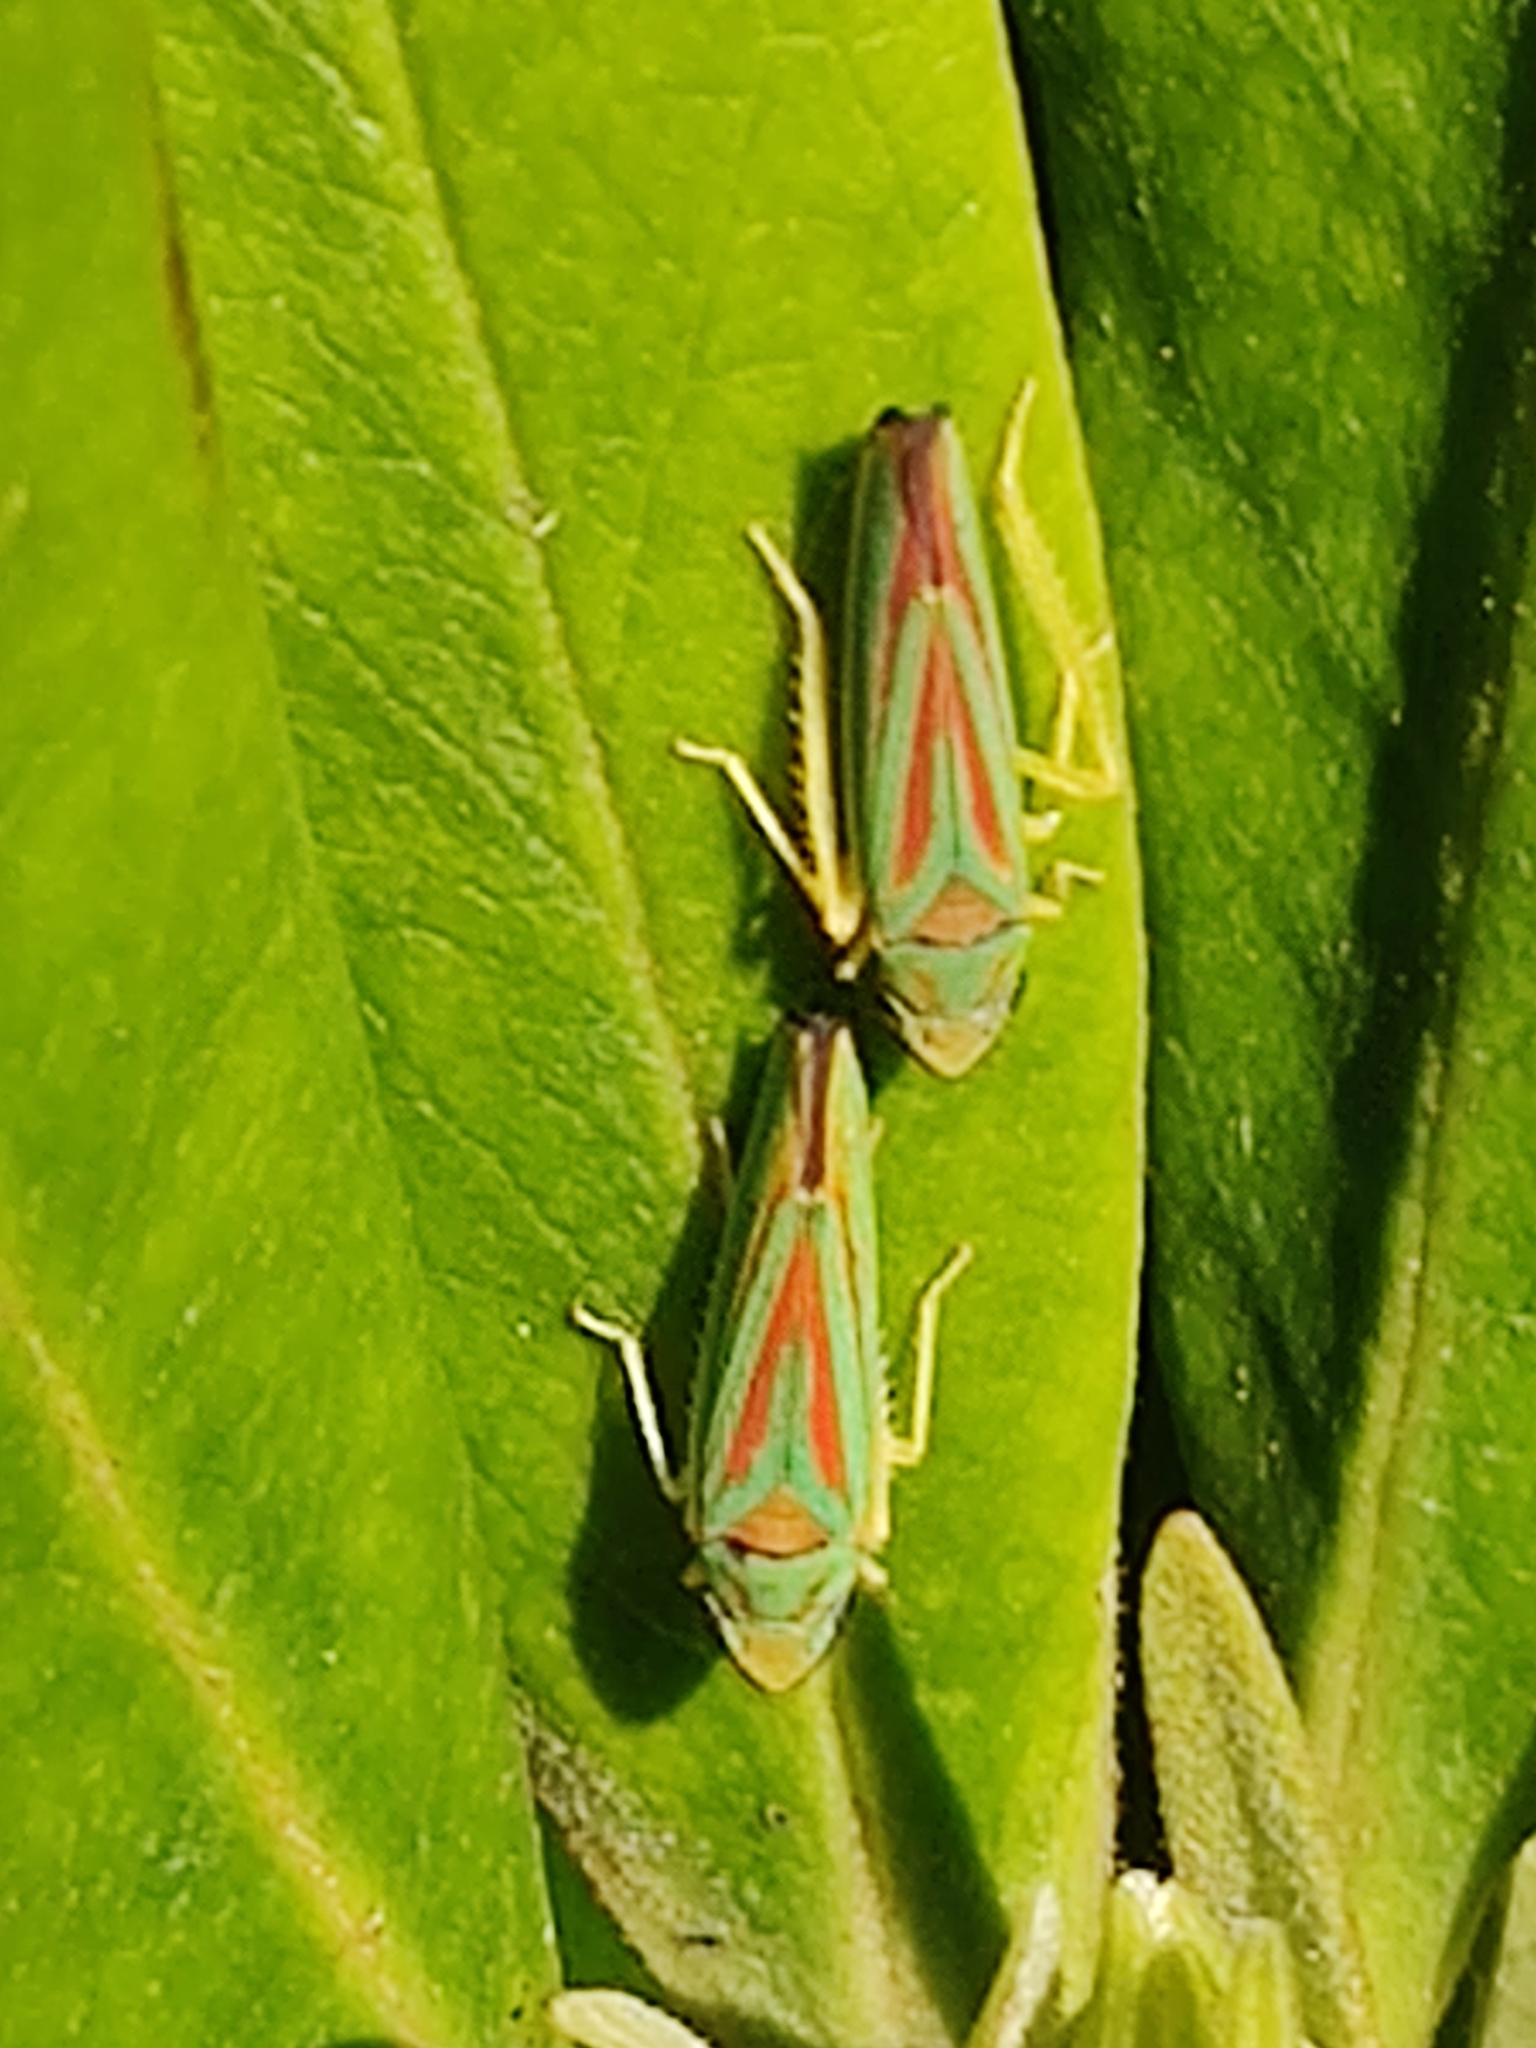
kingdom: Animalia
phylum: Arthropoda
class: Insecta
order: Hemiptera
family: Cicadellidae
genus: Graphocephala
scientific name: Graphocephala fennahi
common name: Rhododendron leafhopper
